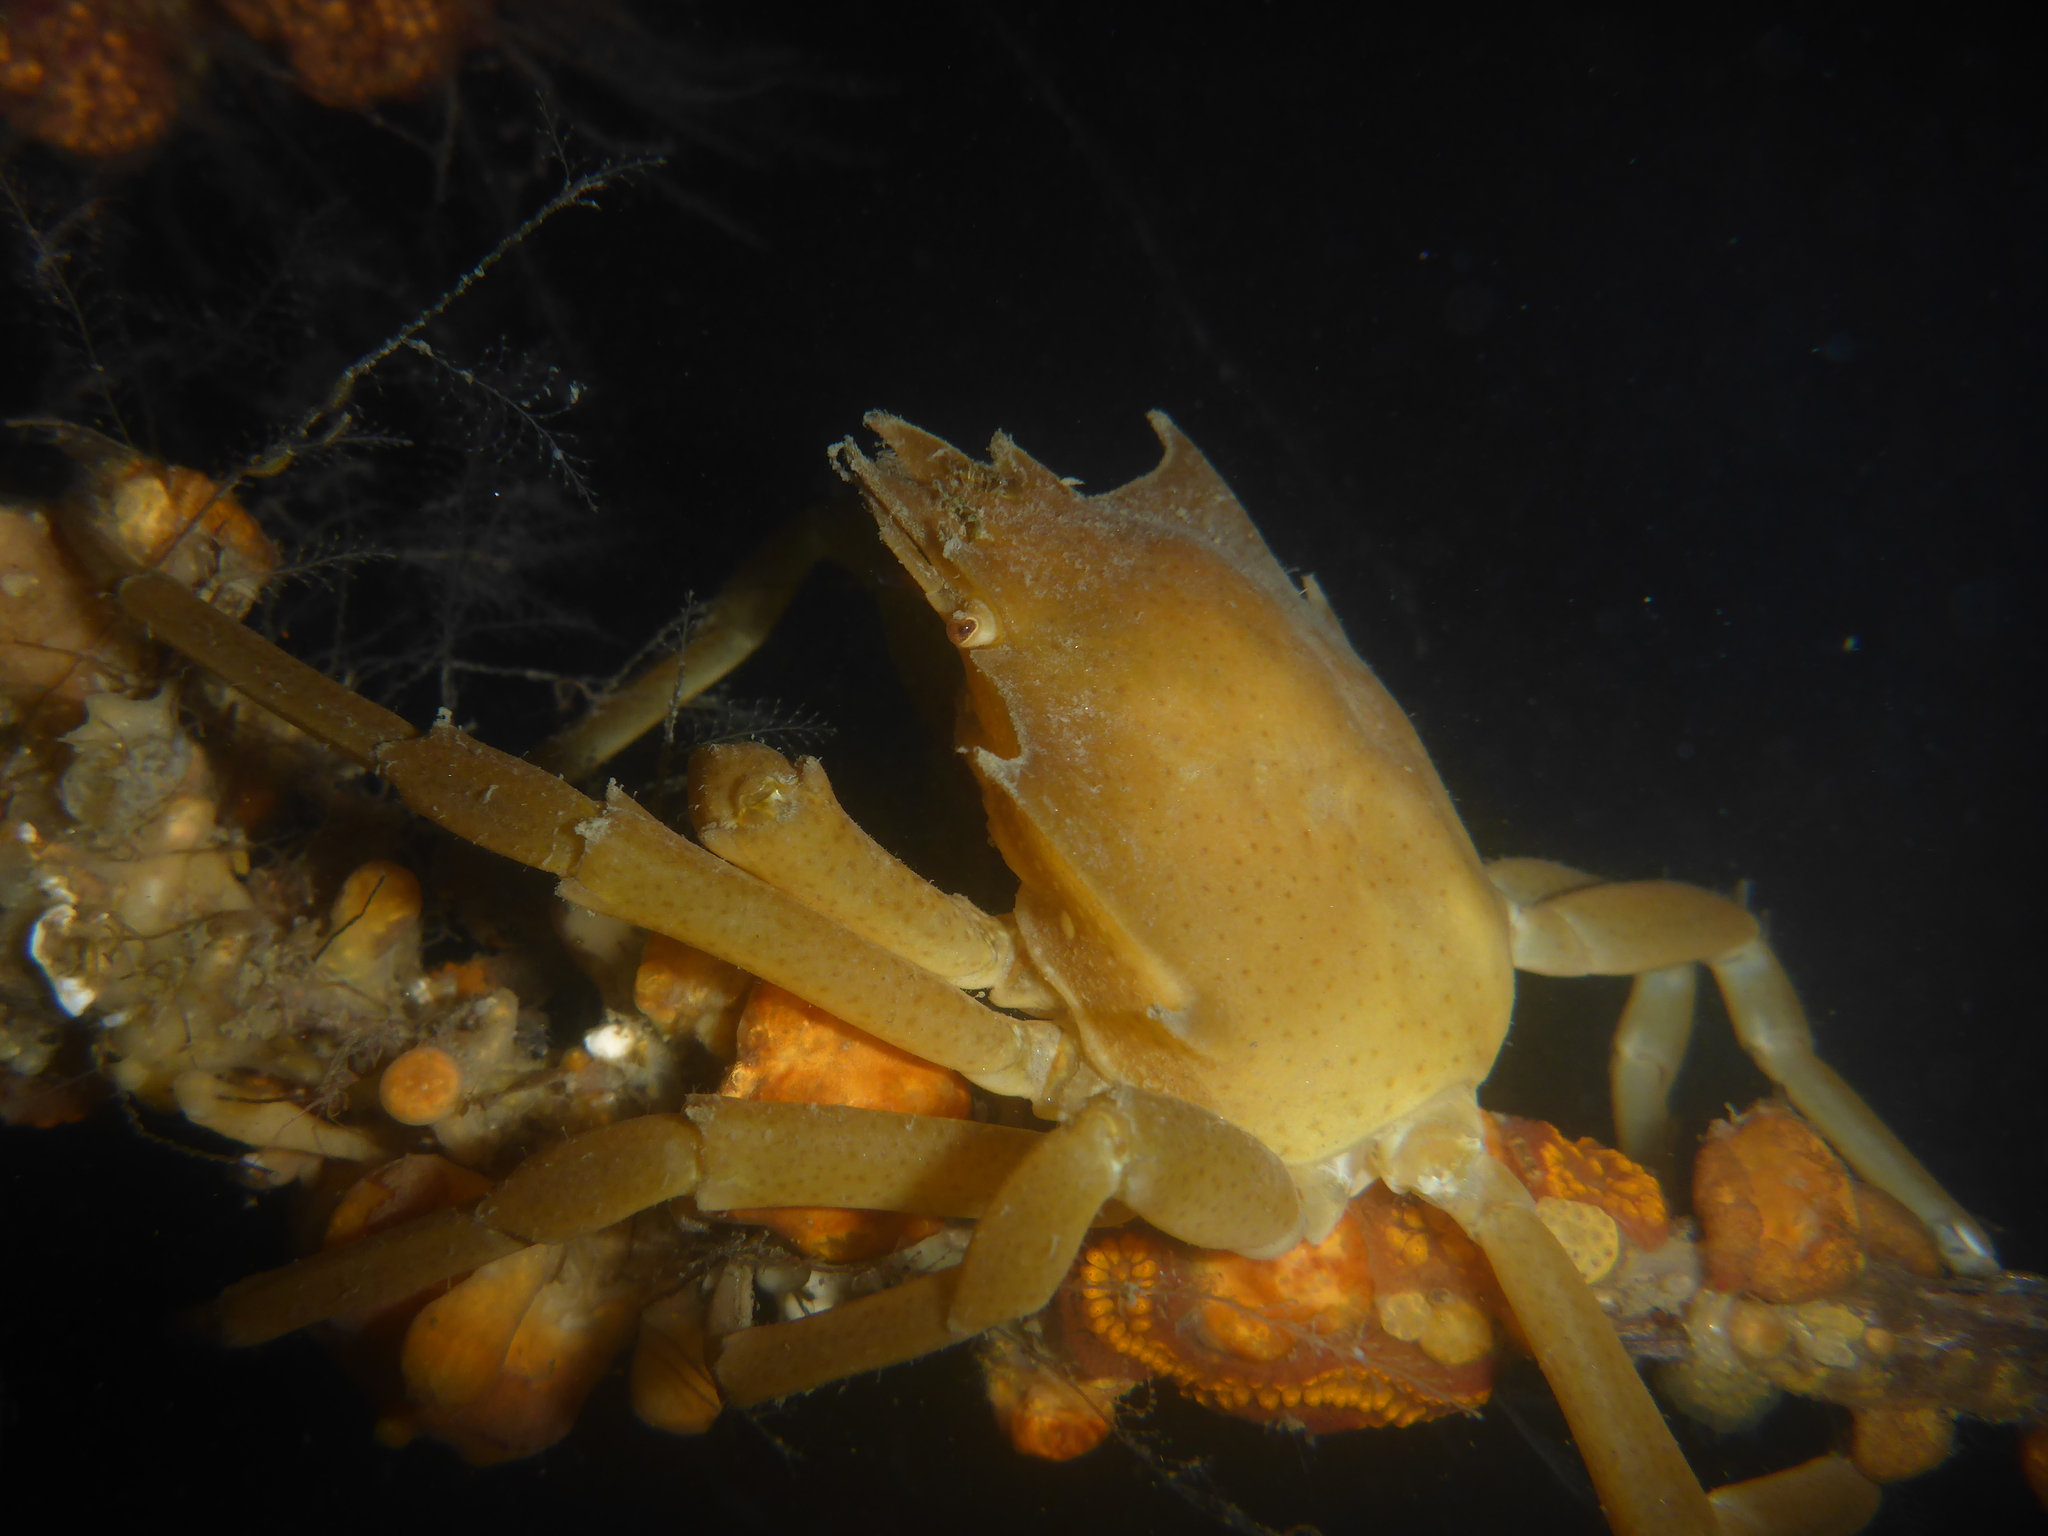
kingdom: Animalia
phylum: Arthropoda
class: Malacostraca
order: Decapoda
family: Epialtidae
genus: Pugettia
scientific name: Pugettia producta
